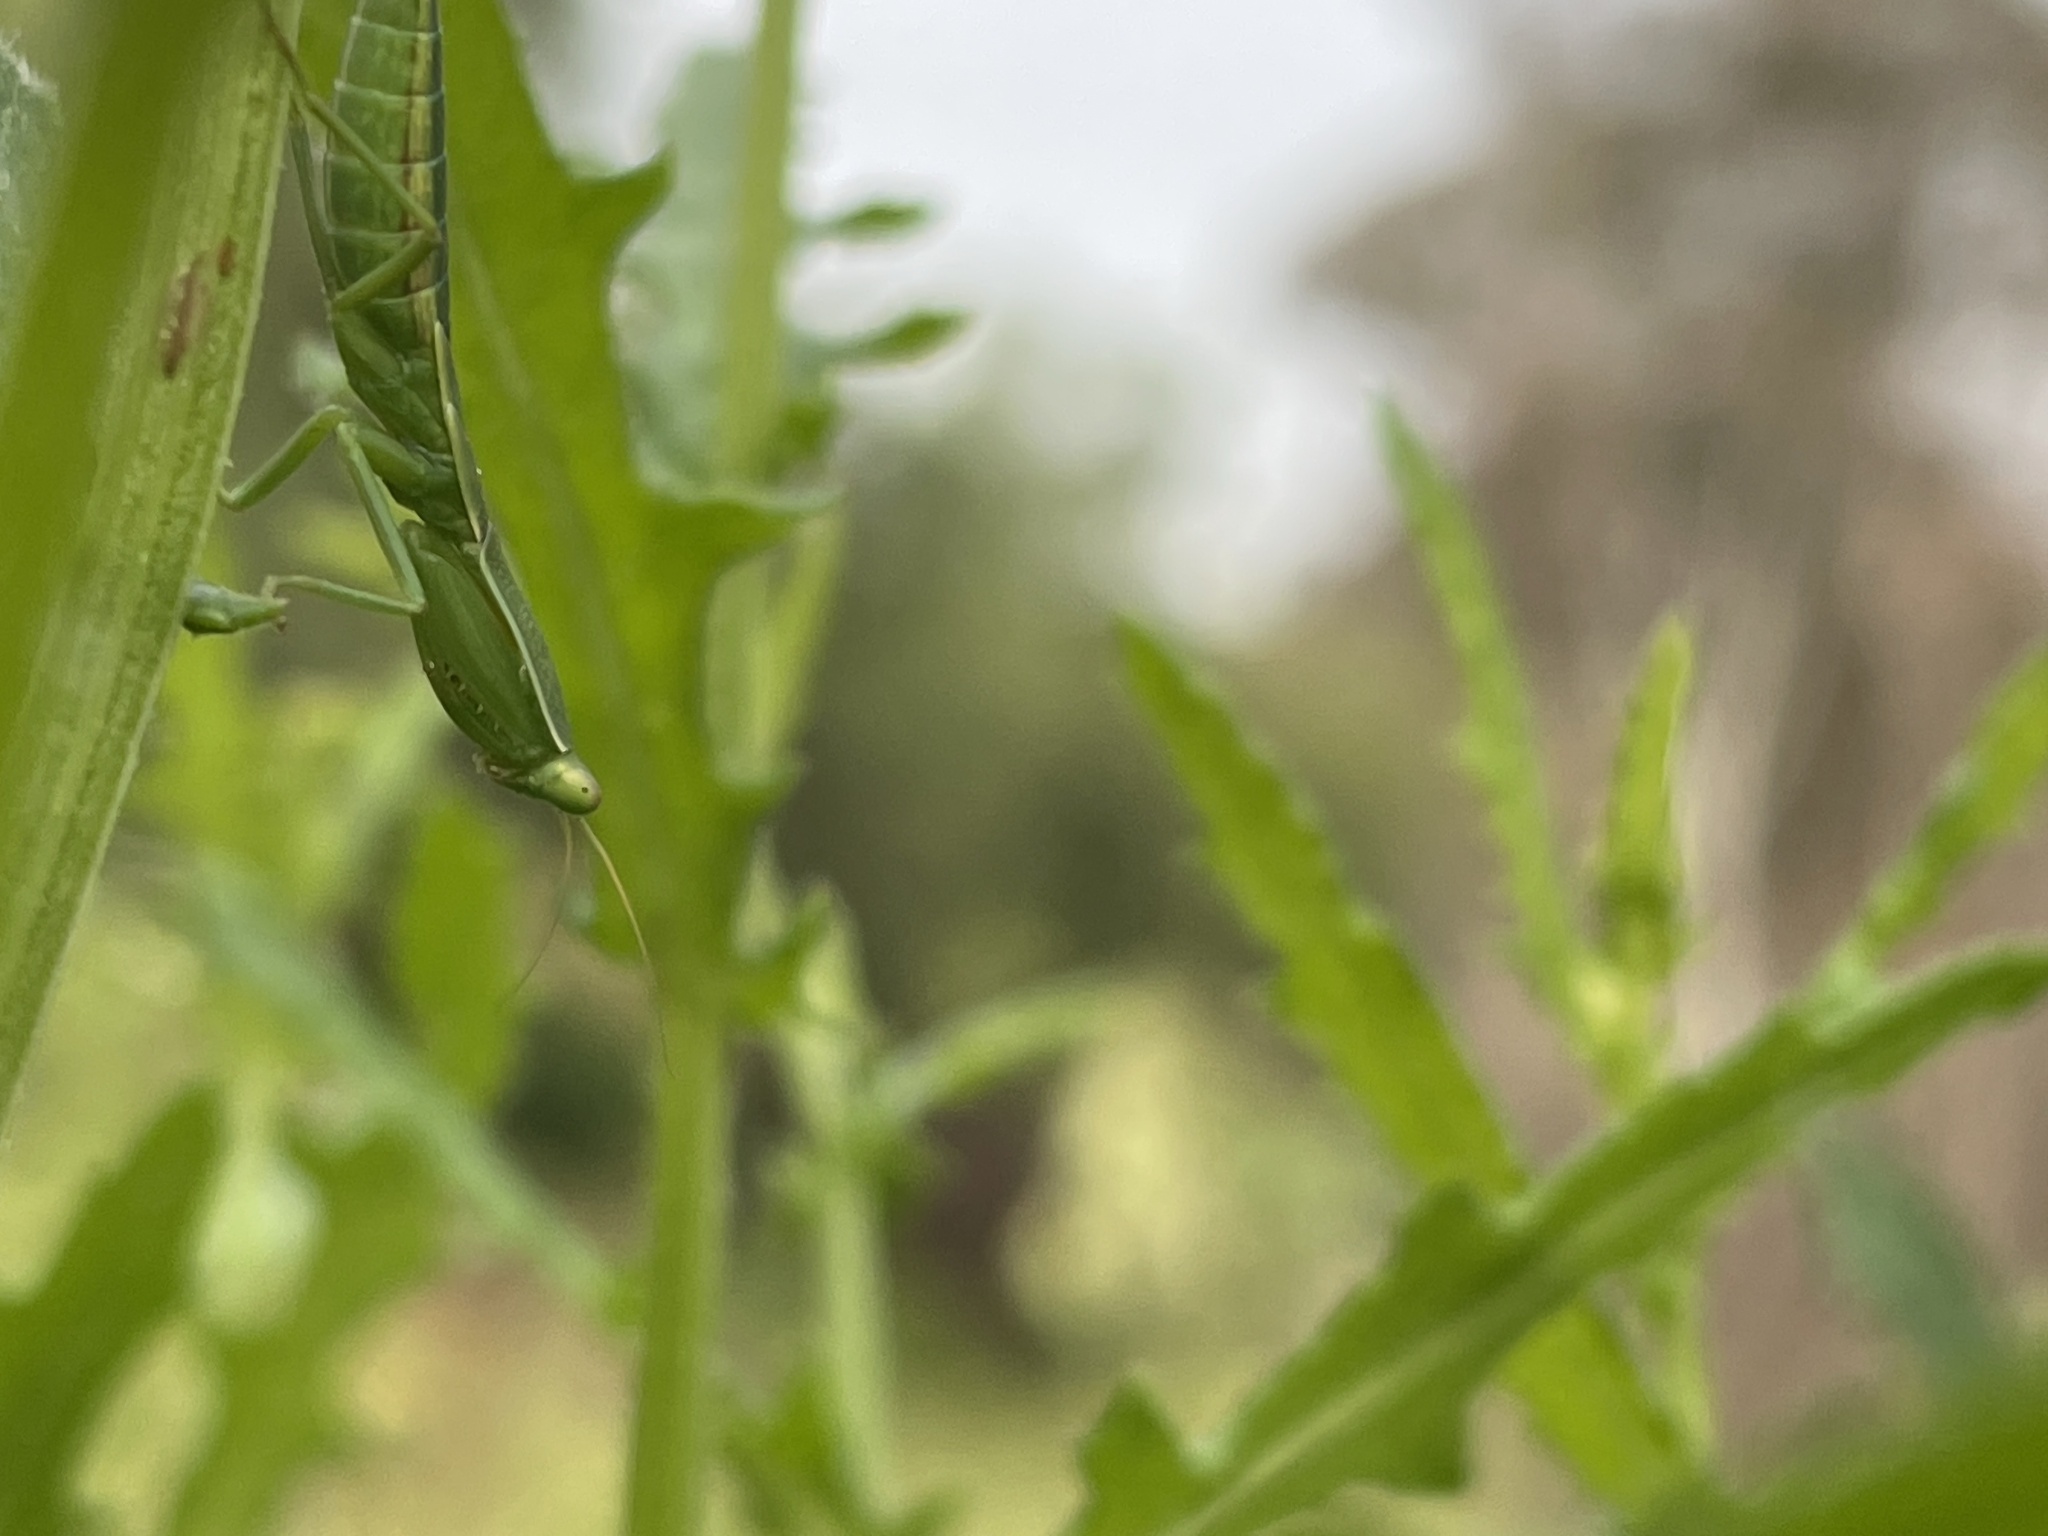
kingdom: Animalia
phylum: Arthropoda
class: Insecta
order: Mantodea
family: Mantidae
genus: Orthodera
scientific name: Orthodera ministralis
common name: Mantis
